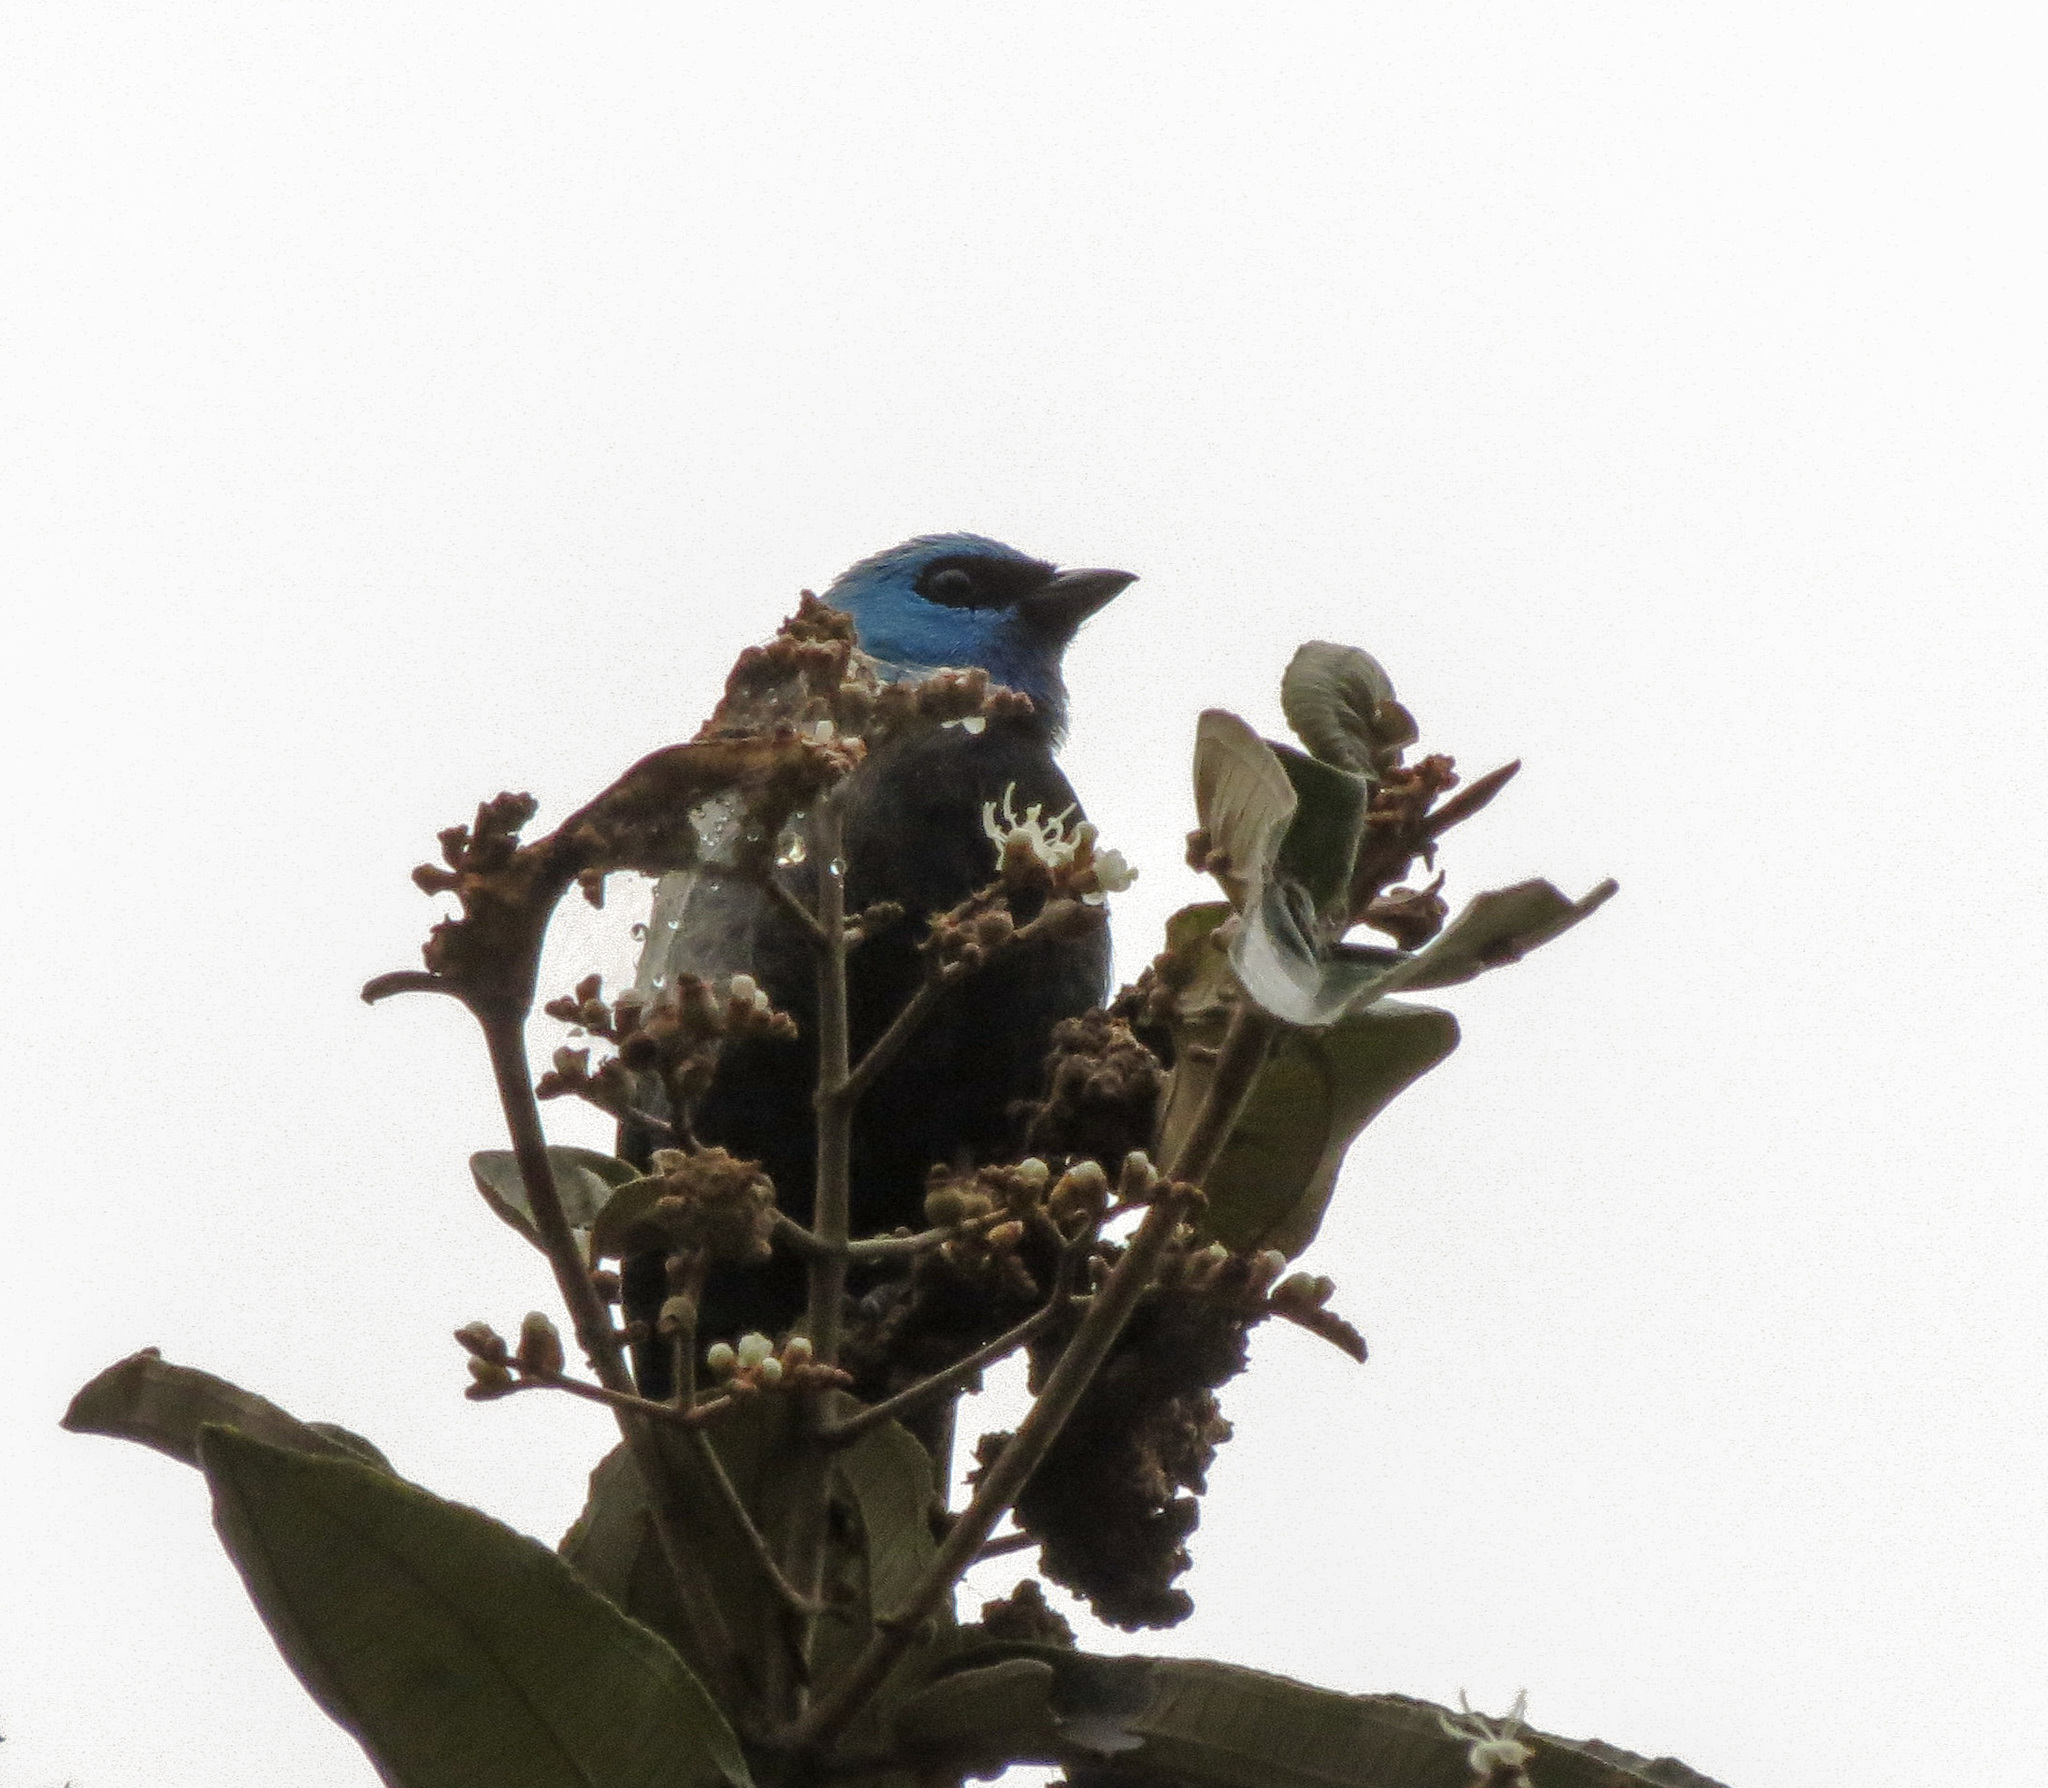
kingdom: Animalia
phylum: Chordata
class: Aves
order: Passeriformes
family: Thraupidae
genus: Stilpnia
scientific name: Stilpnia cyanicollis
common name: Blue-necked tanager
